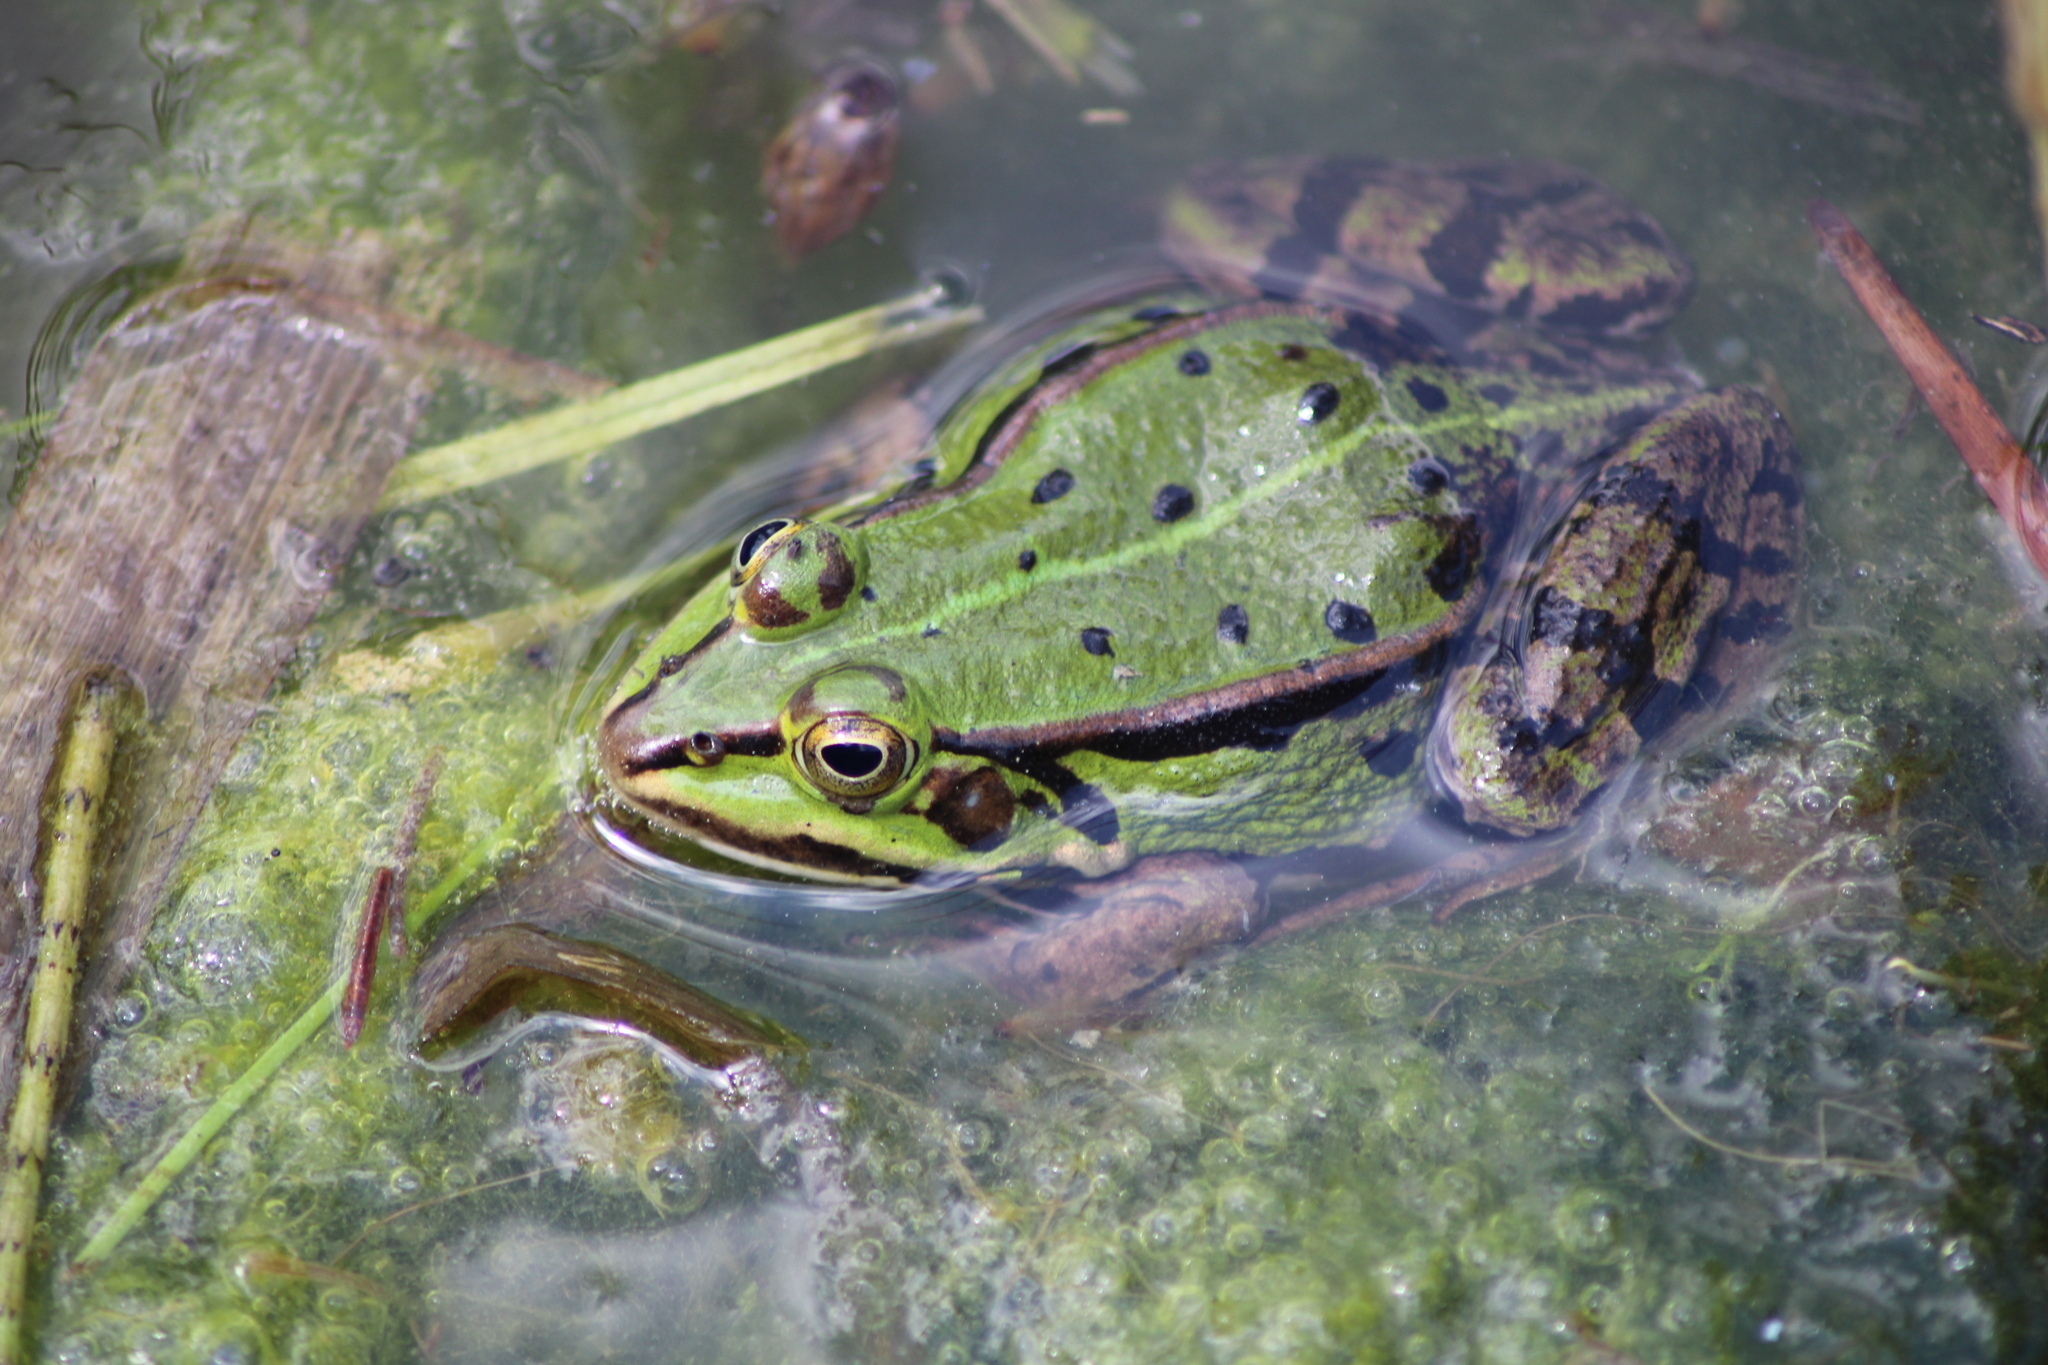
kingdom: Animalia
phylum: Chordata
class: Amphibia
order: Anura
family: Ranidae
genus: Pelophylax
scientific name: Pelophylax
